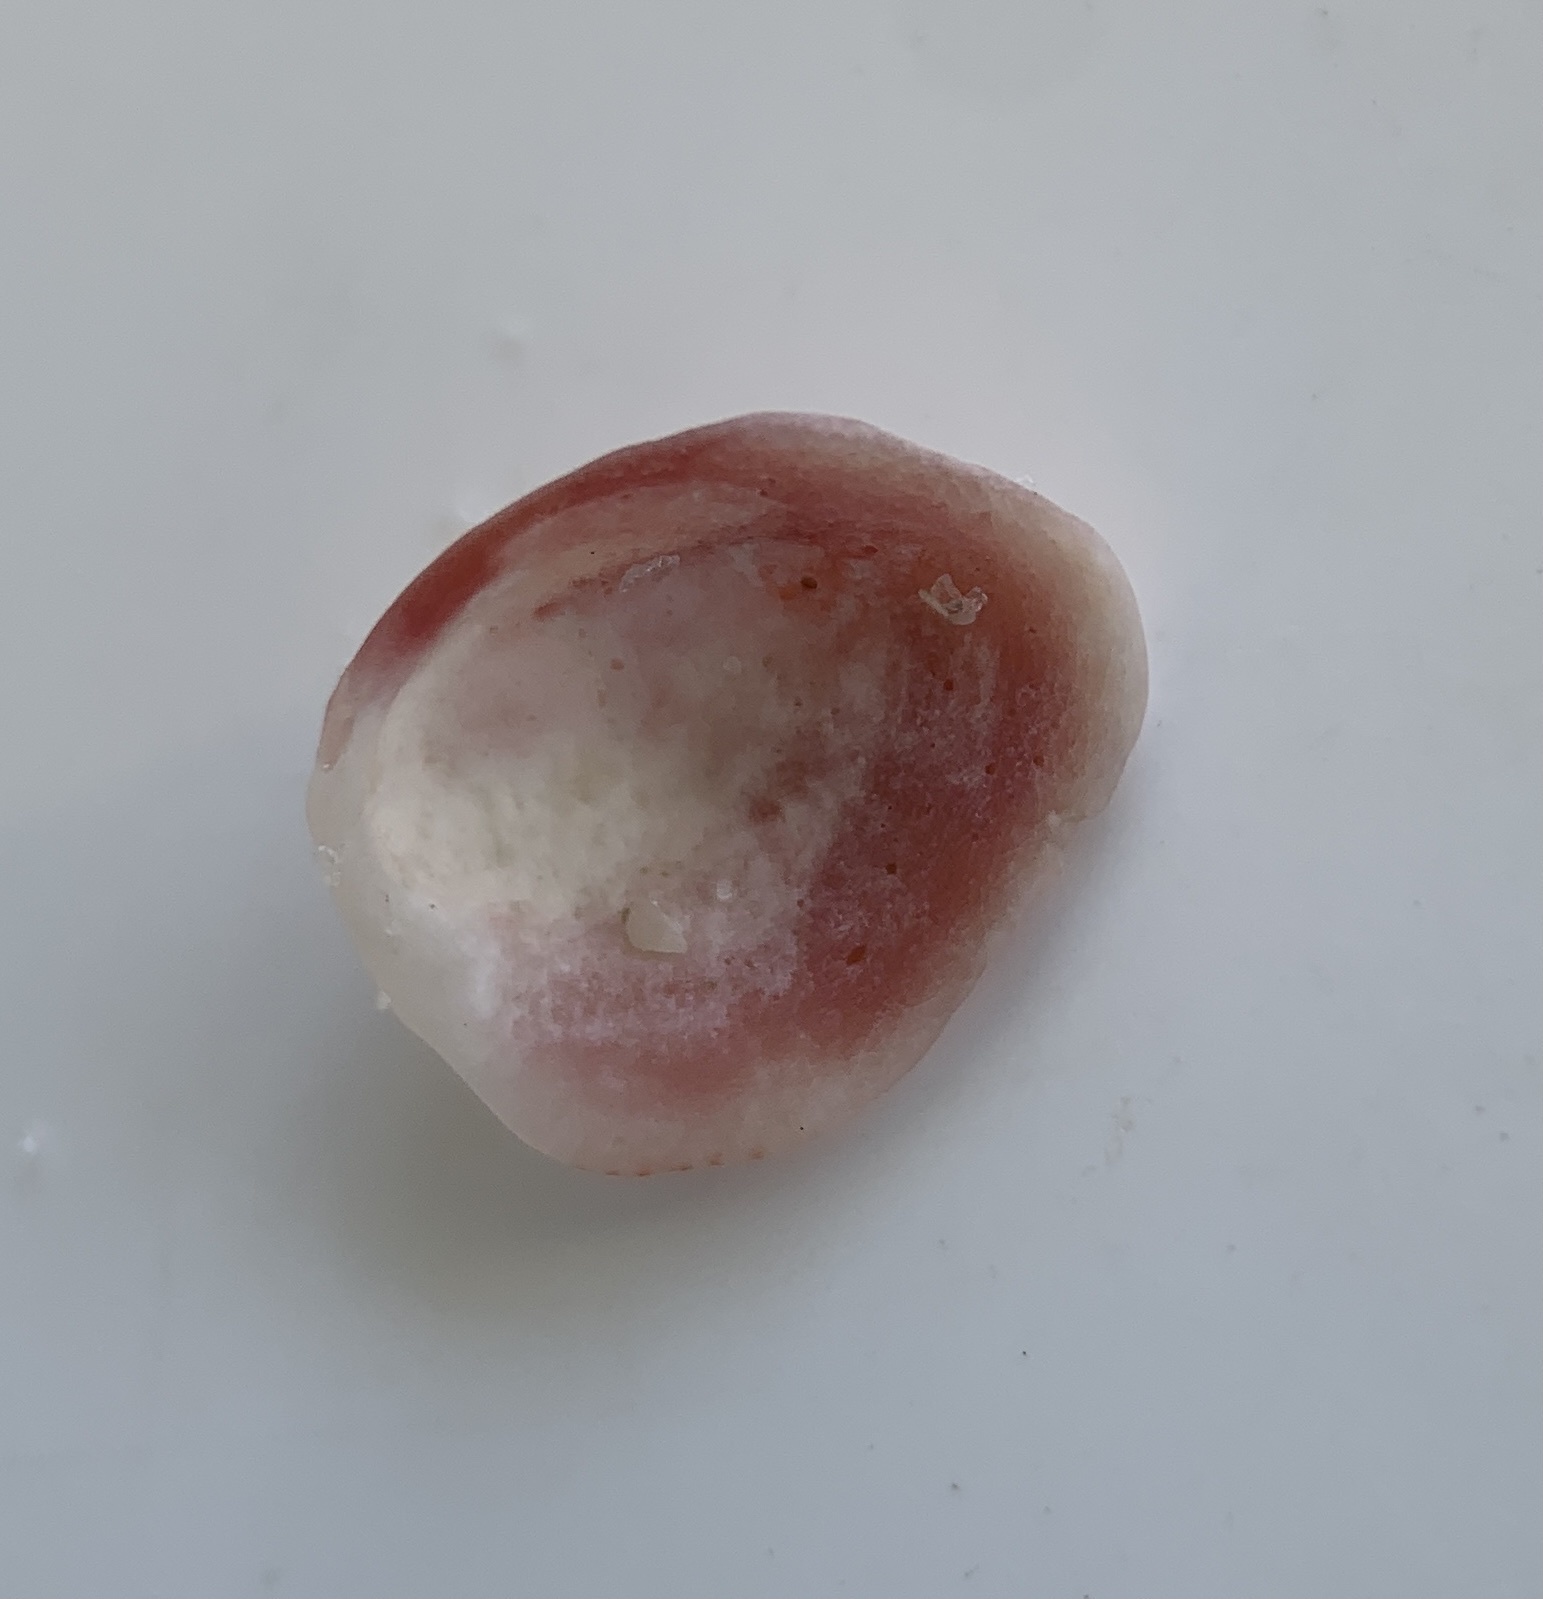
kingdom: Animalia
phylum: Mollusca
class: Bivalvia
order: Venerida
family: Chamidae
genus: Chama
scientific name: Chama congregata
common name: Corrugate jewelbox
